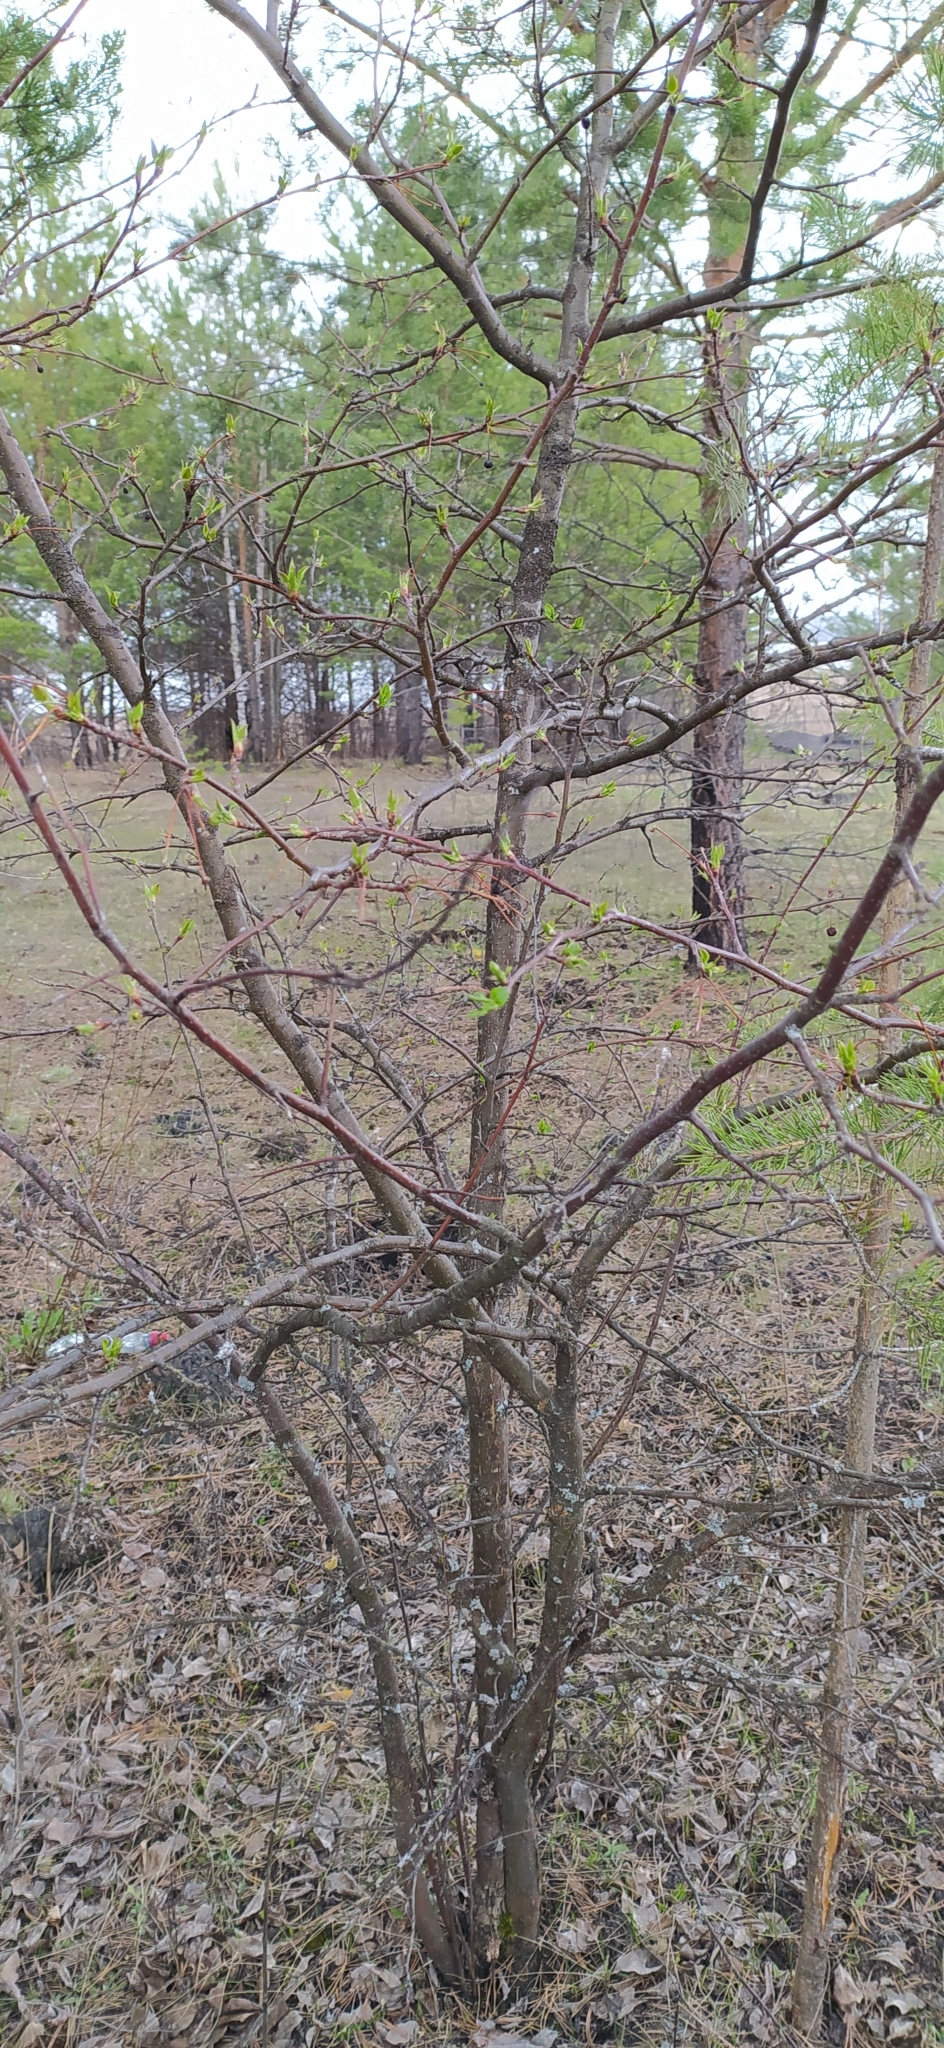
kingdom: Plantae
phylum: Tracheophyta
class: Magnoliopsida
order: Rosales
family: Rosaceae
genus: Malus
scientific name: Malus baccata
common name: Siberian crab
